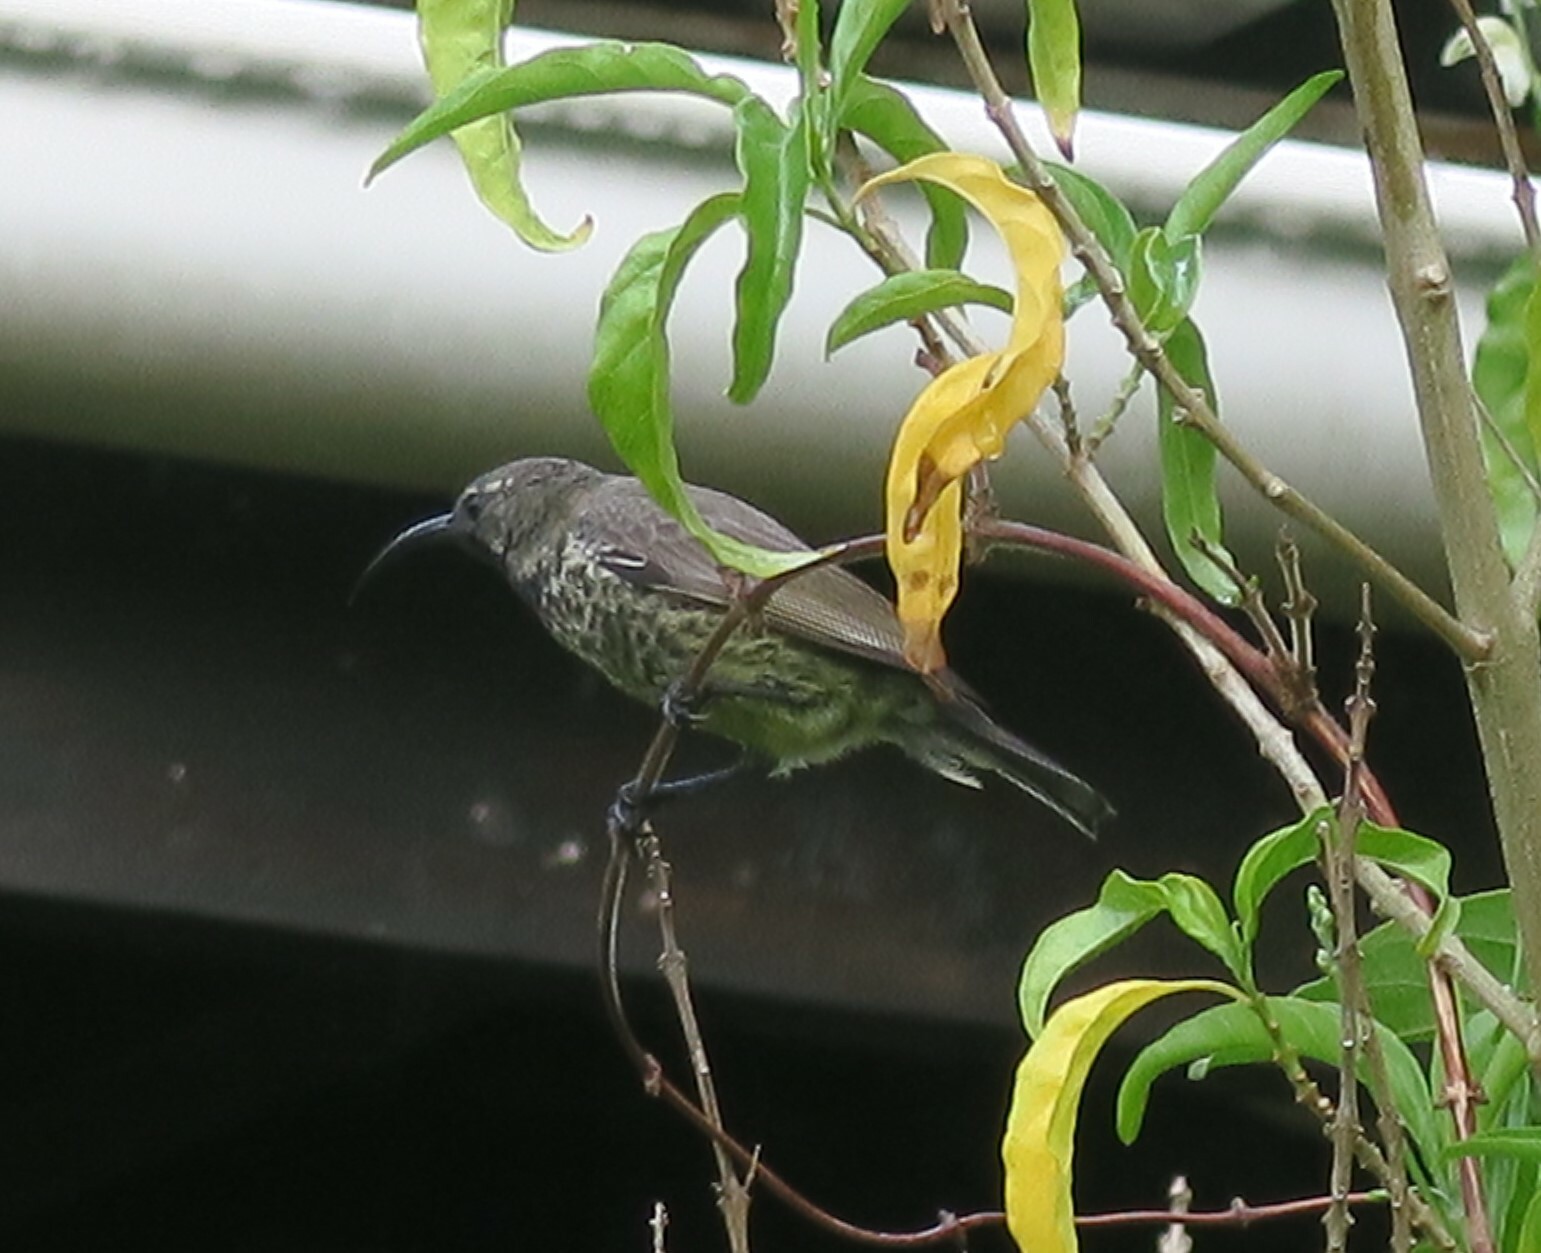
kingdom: Animalia
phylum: Chordata
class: Aves
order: Passeriformes
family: Nectariniidae
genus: Chalcomitra
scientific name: Chalcomitra amethystina
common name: Amethyst sunbird
